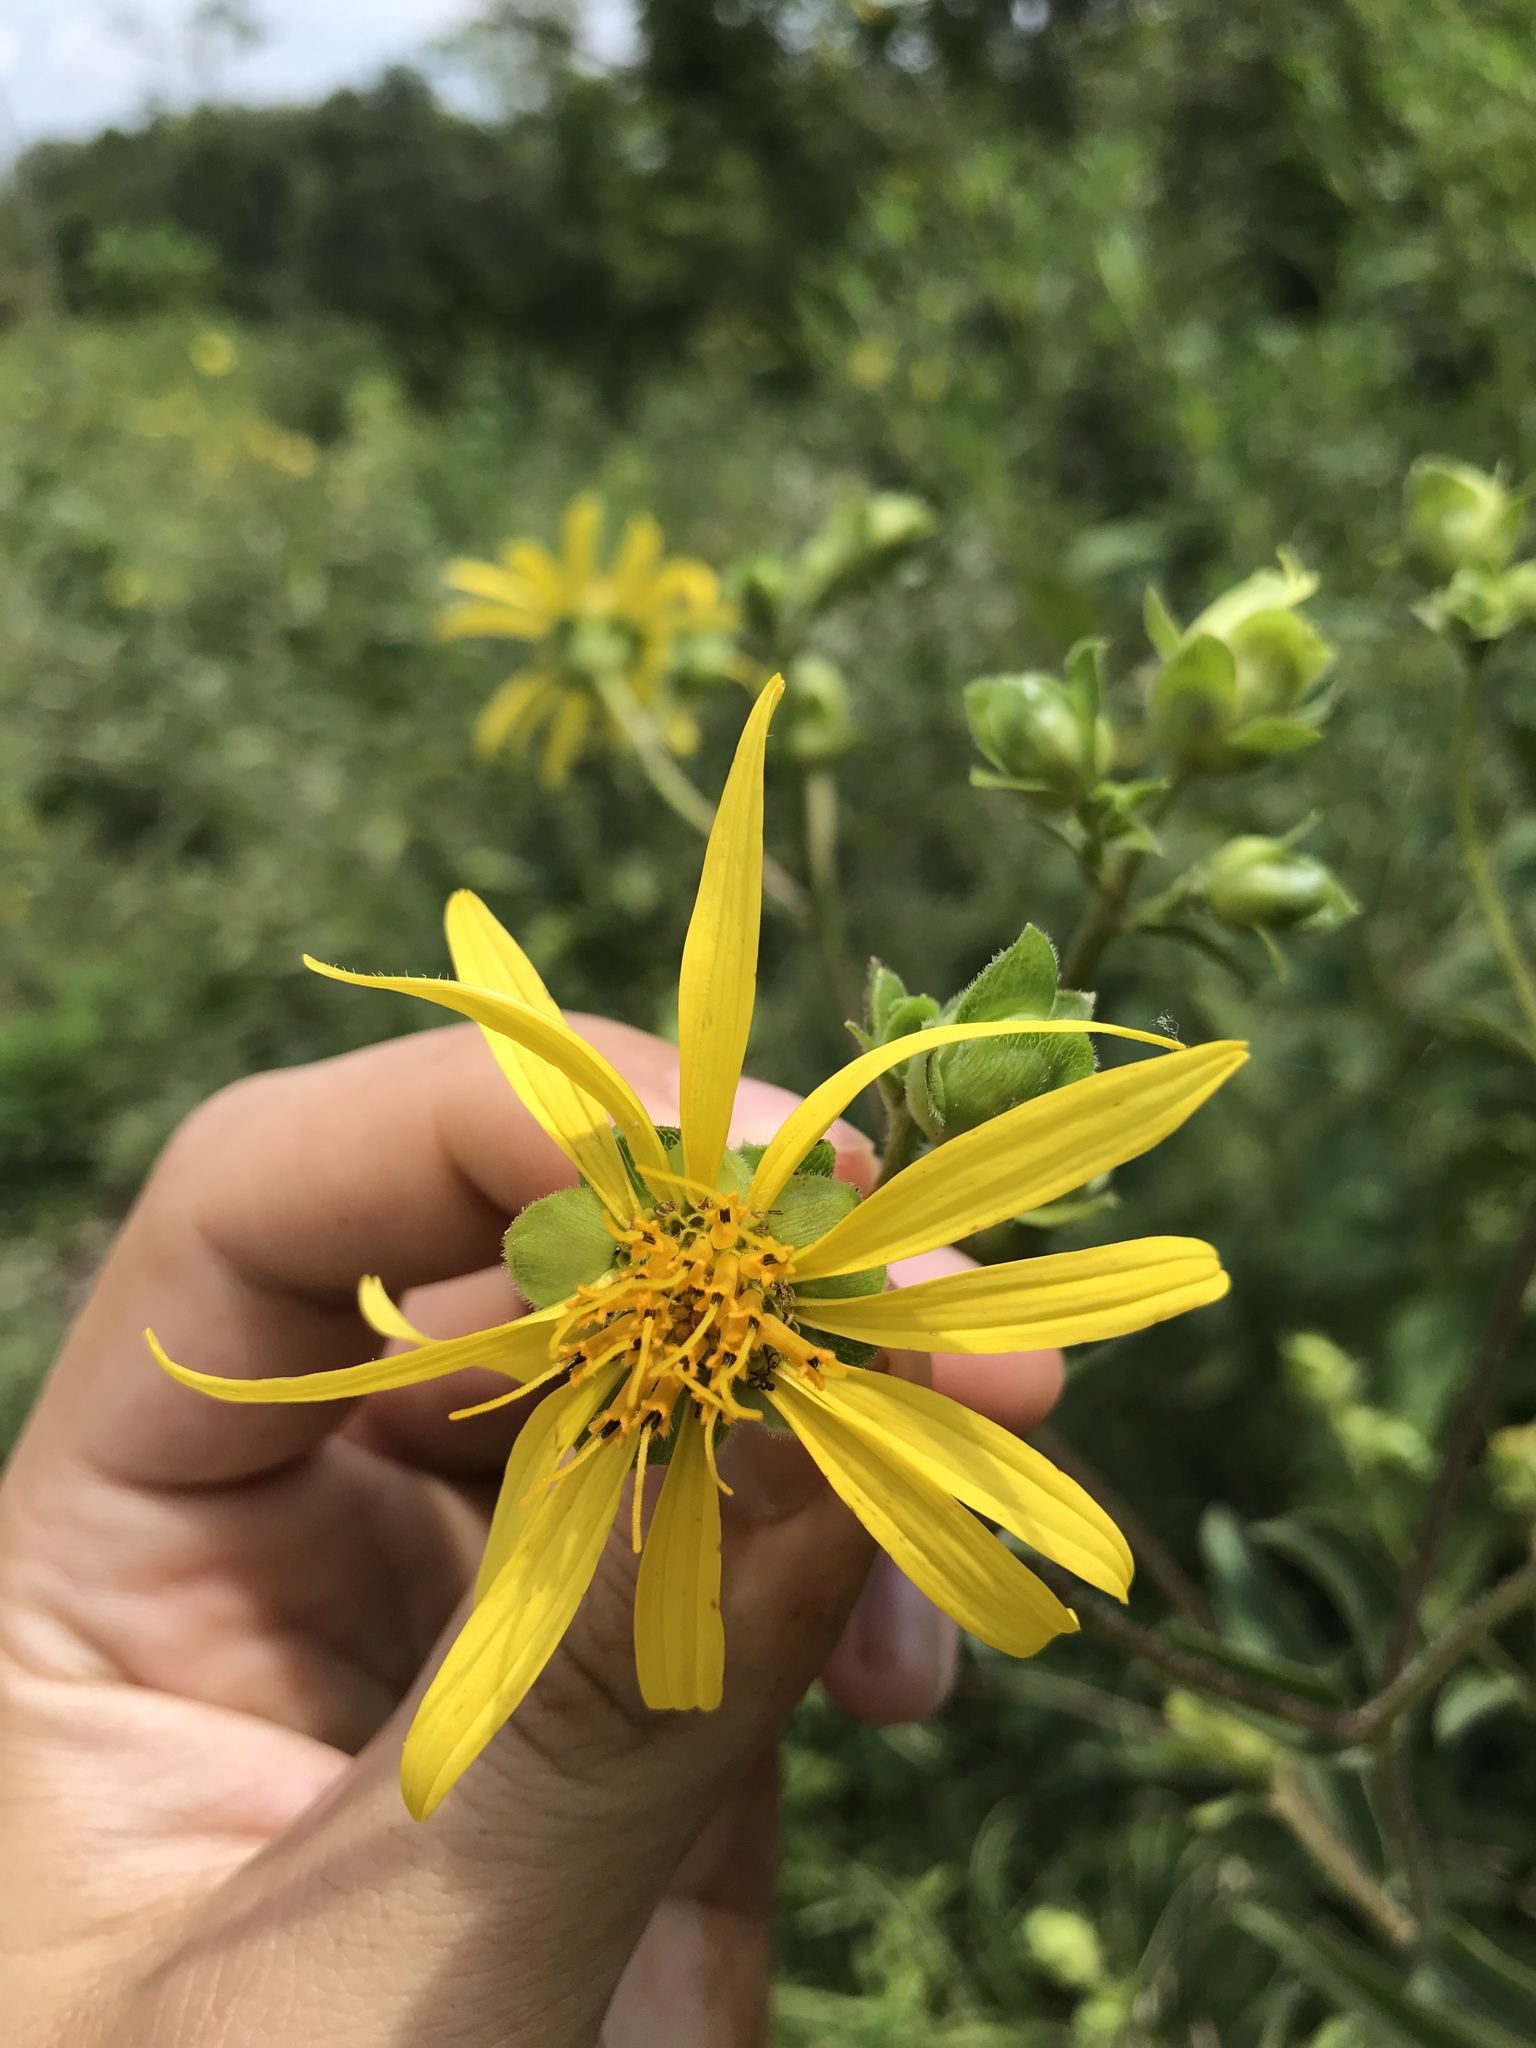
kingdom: Plantae
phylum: Tracheophyta
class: Magnoliopsida
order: Asterales
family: Asteraceae
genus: Silphium
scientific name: Silphium asteriscus
